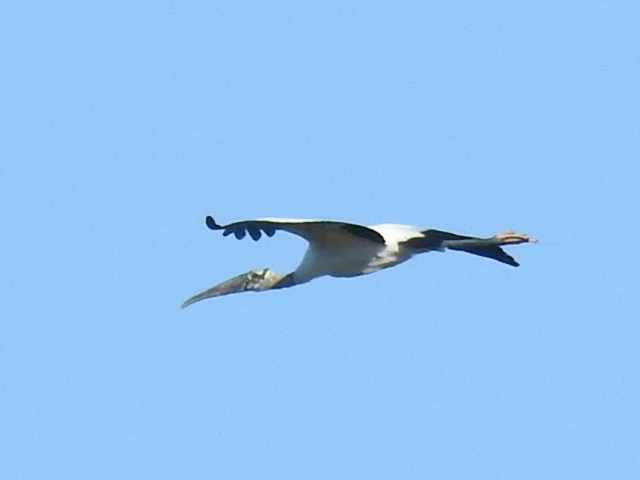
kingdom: Animalia
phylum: Chordata
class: Aves
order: Ciconiiformes
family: Ciconiidae
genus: Mycteria
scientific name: Mycteria americana
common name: Wood stork
